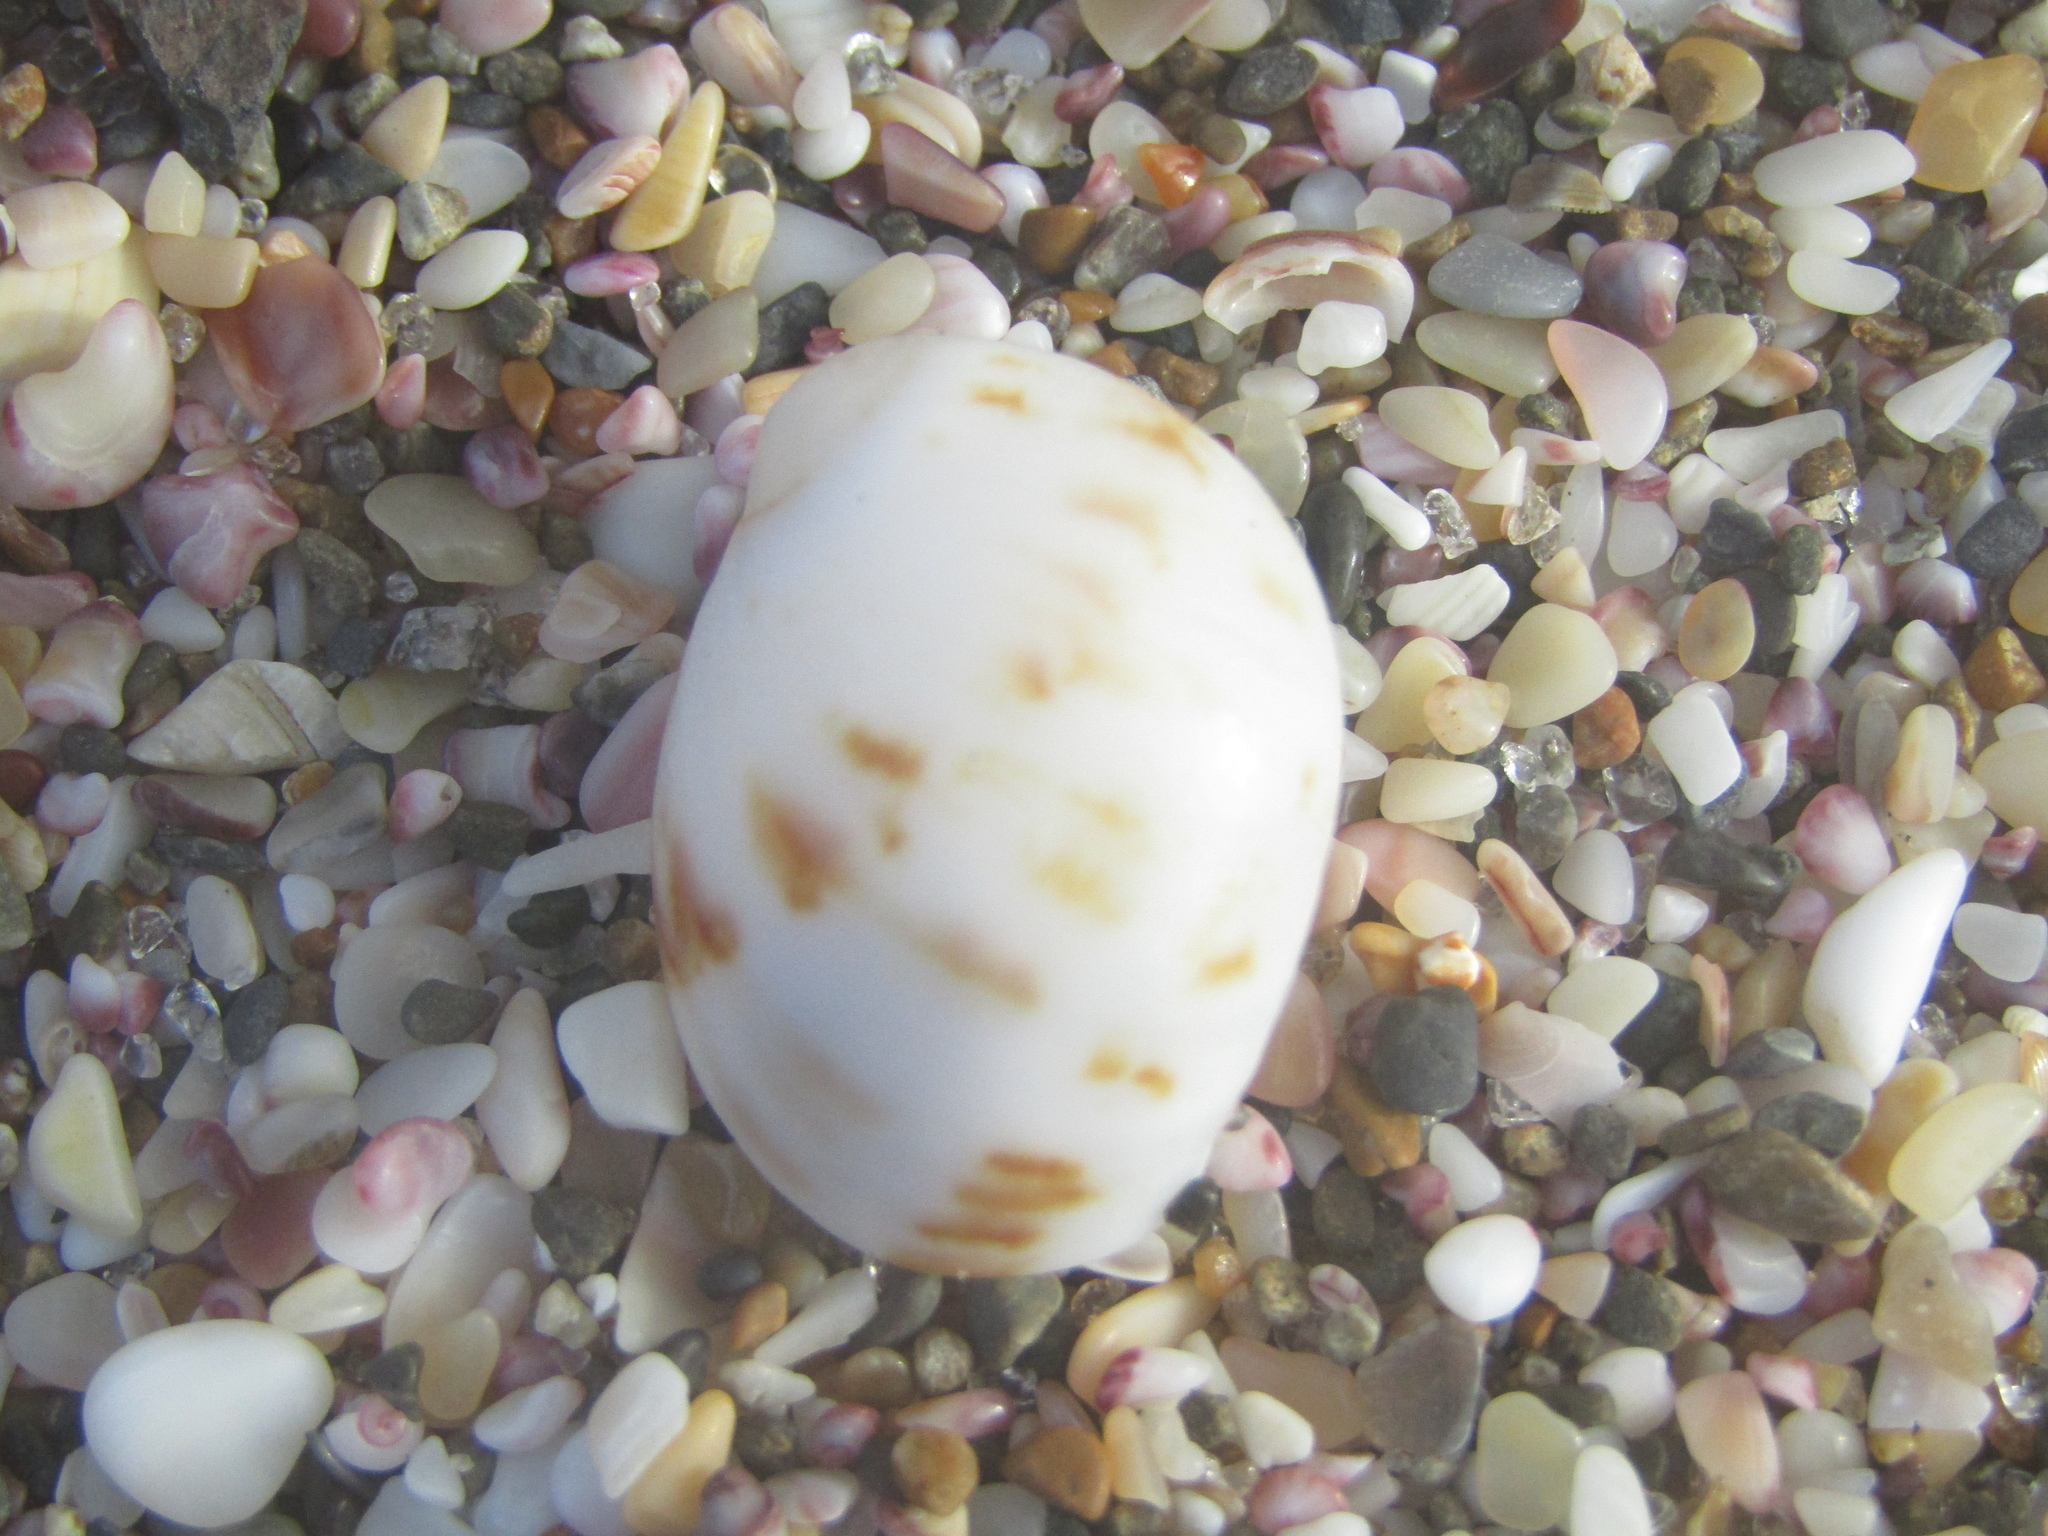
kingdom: Animalia
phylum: Mollusca
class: Gastropoda
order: Littorinimorpha
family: Naticidae
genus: Mammilla
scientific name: Mammilla simiae
